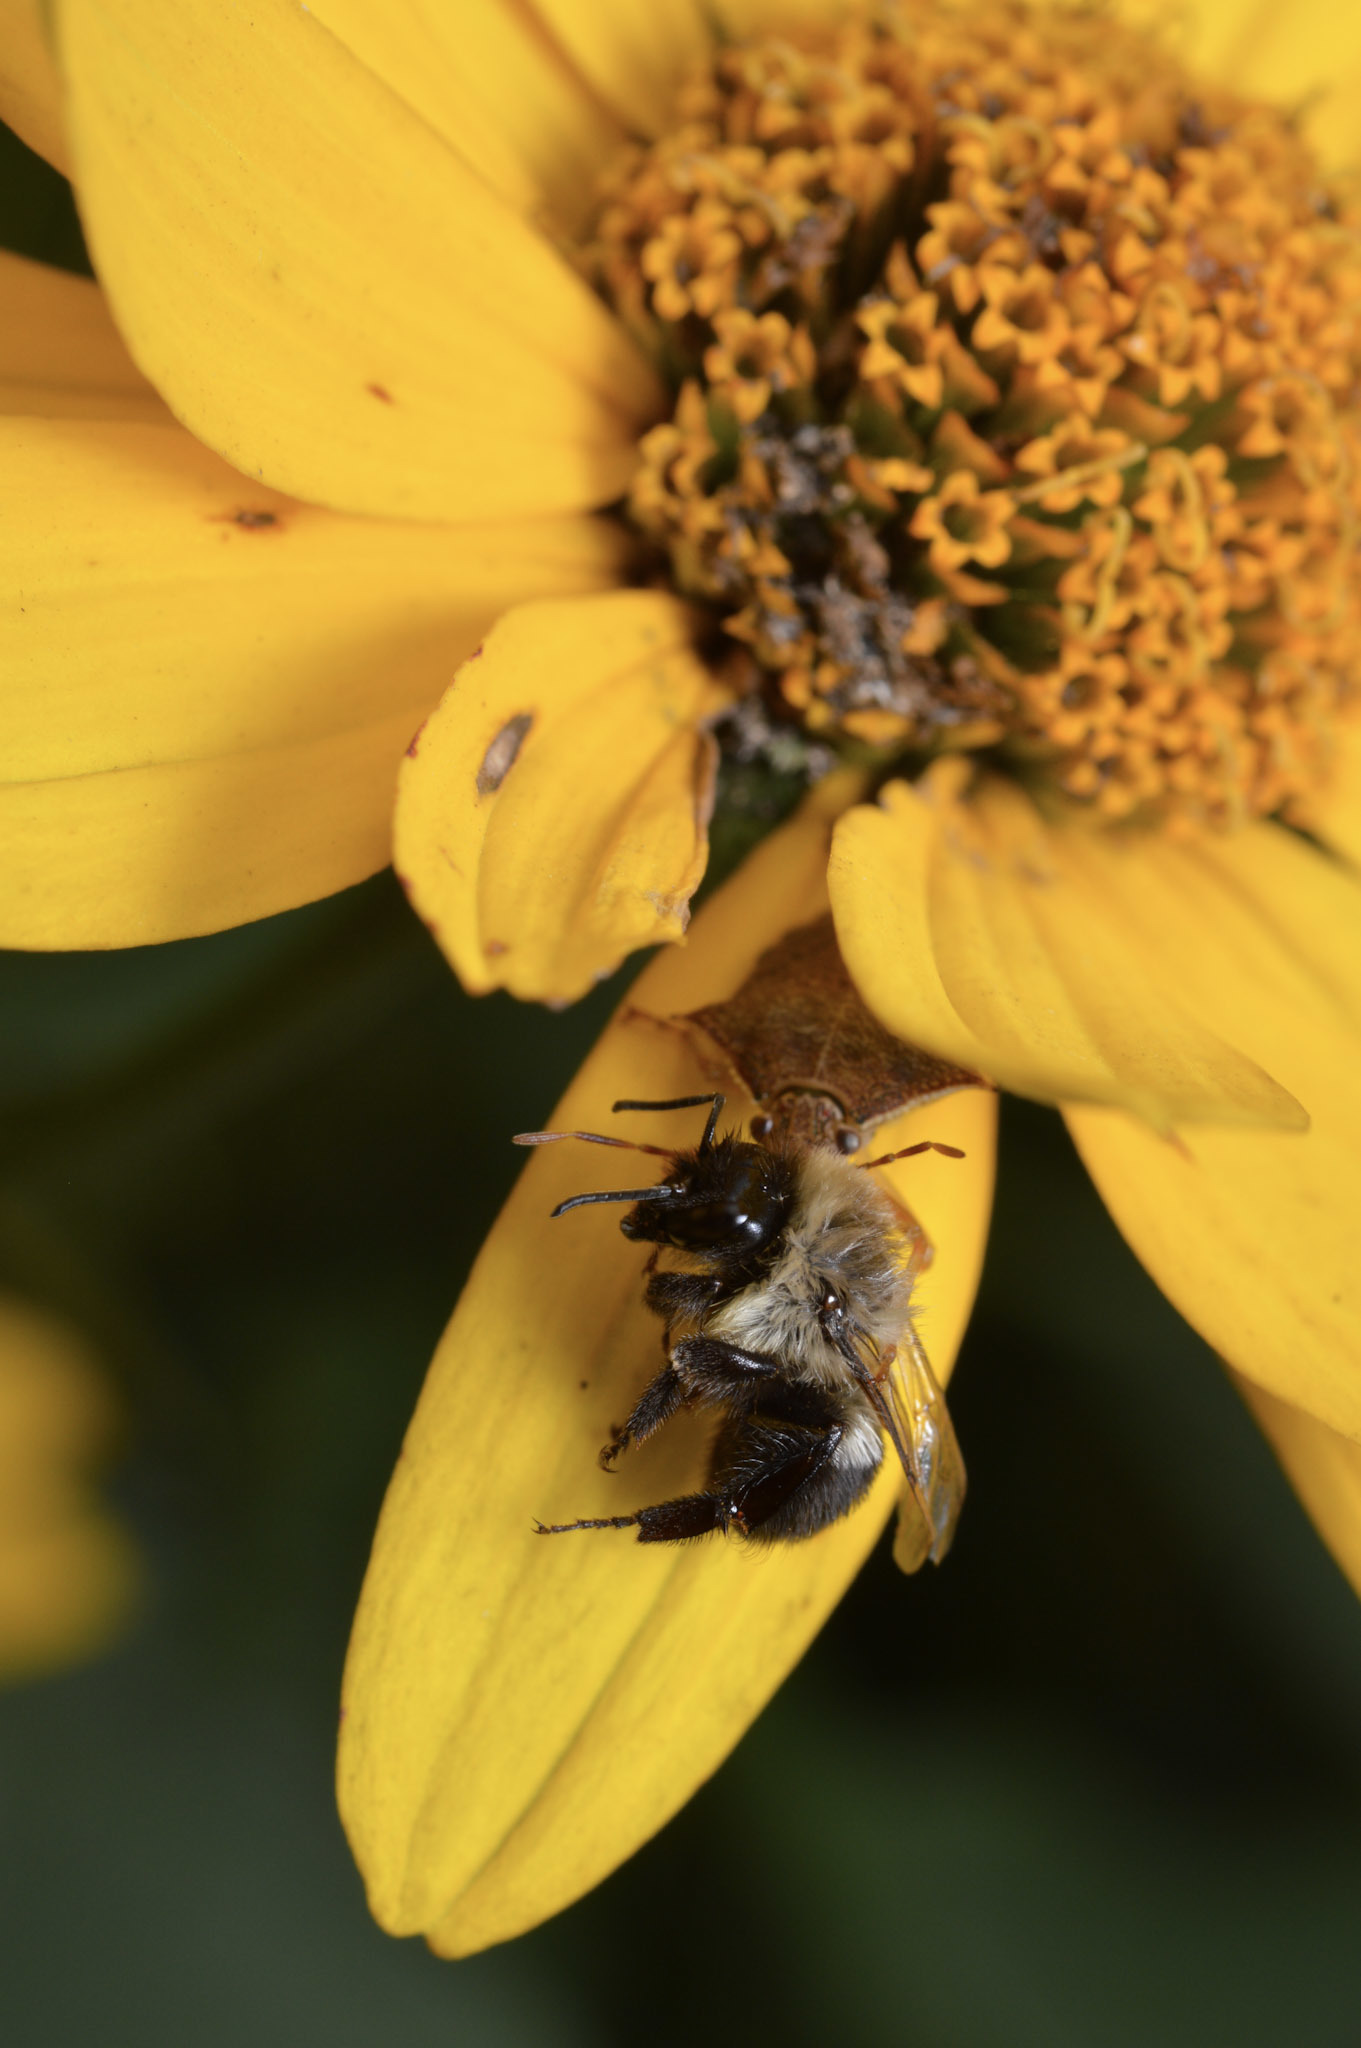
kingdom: Animalia
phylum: Arthropoda
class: Insecta
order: Hymenoptera
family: Apidae
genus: Bombus
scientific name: Bombus impatiens
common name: Common eastern bumble bee
